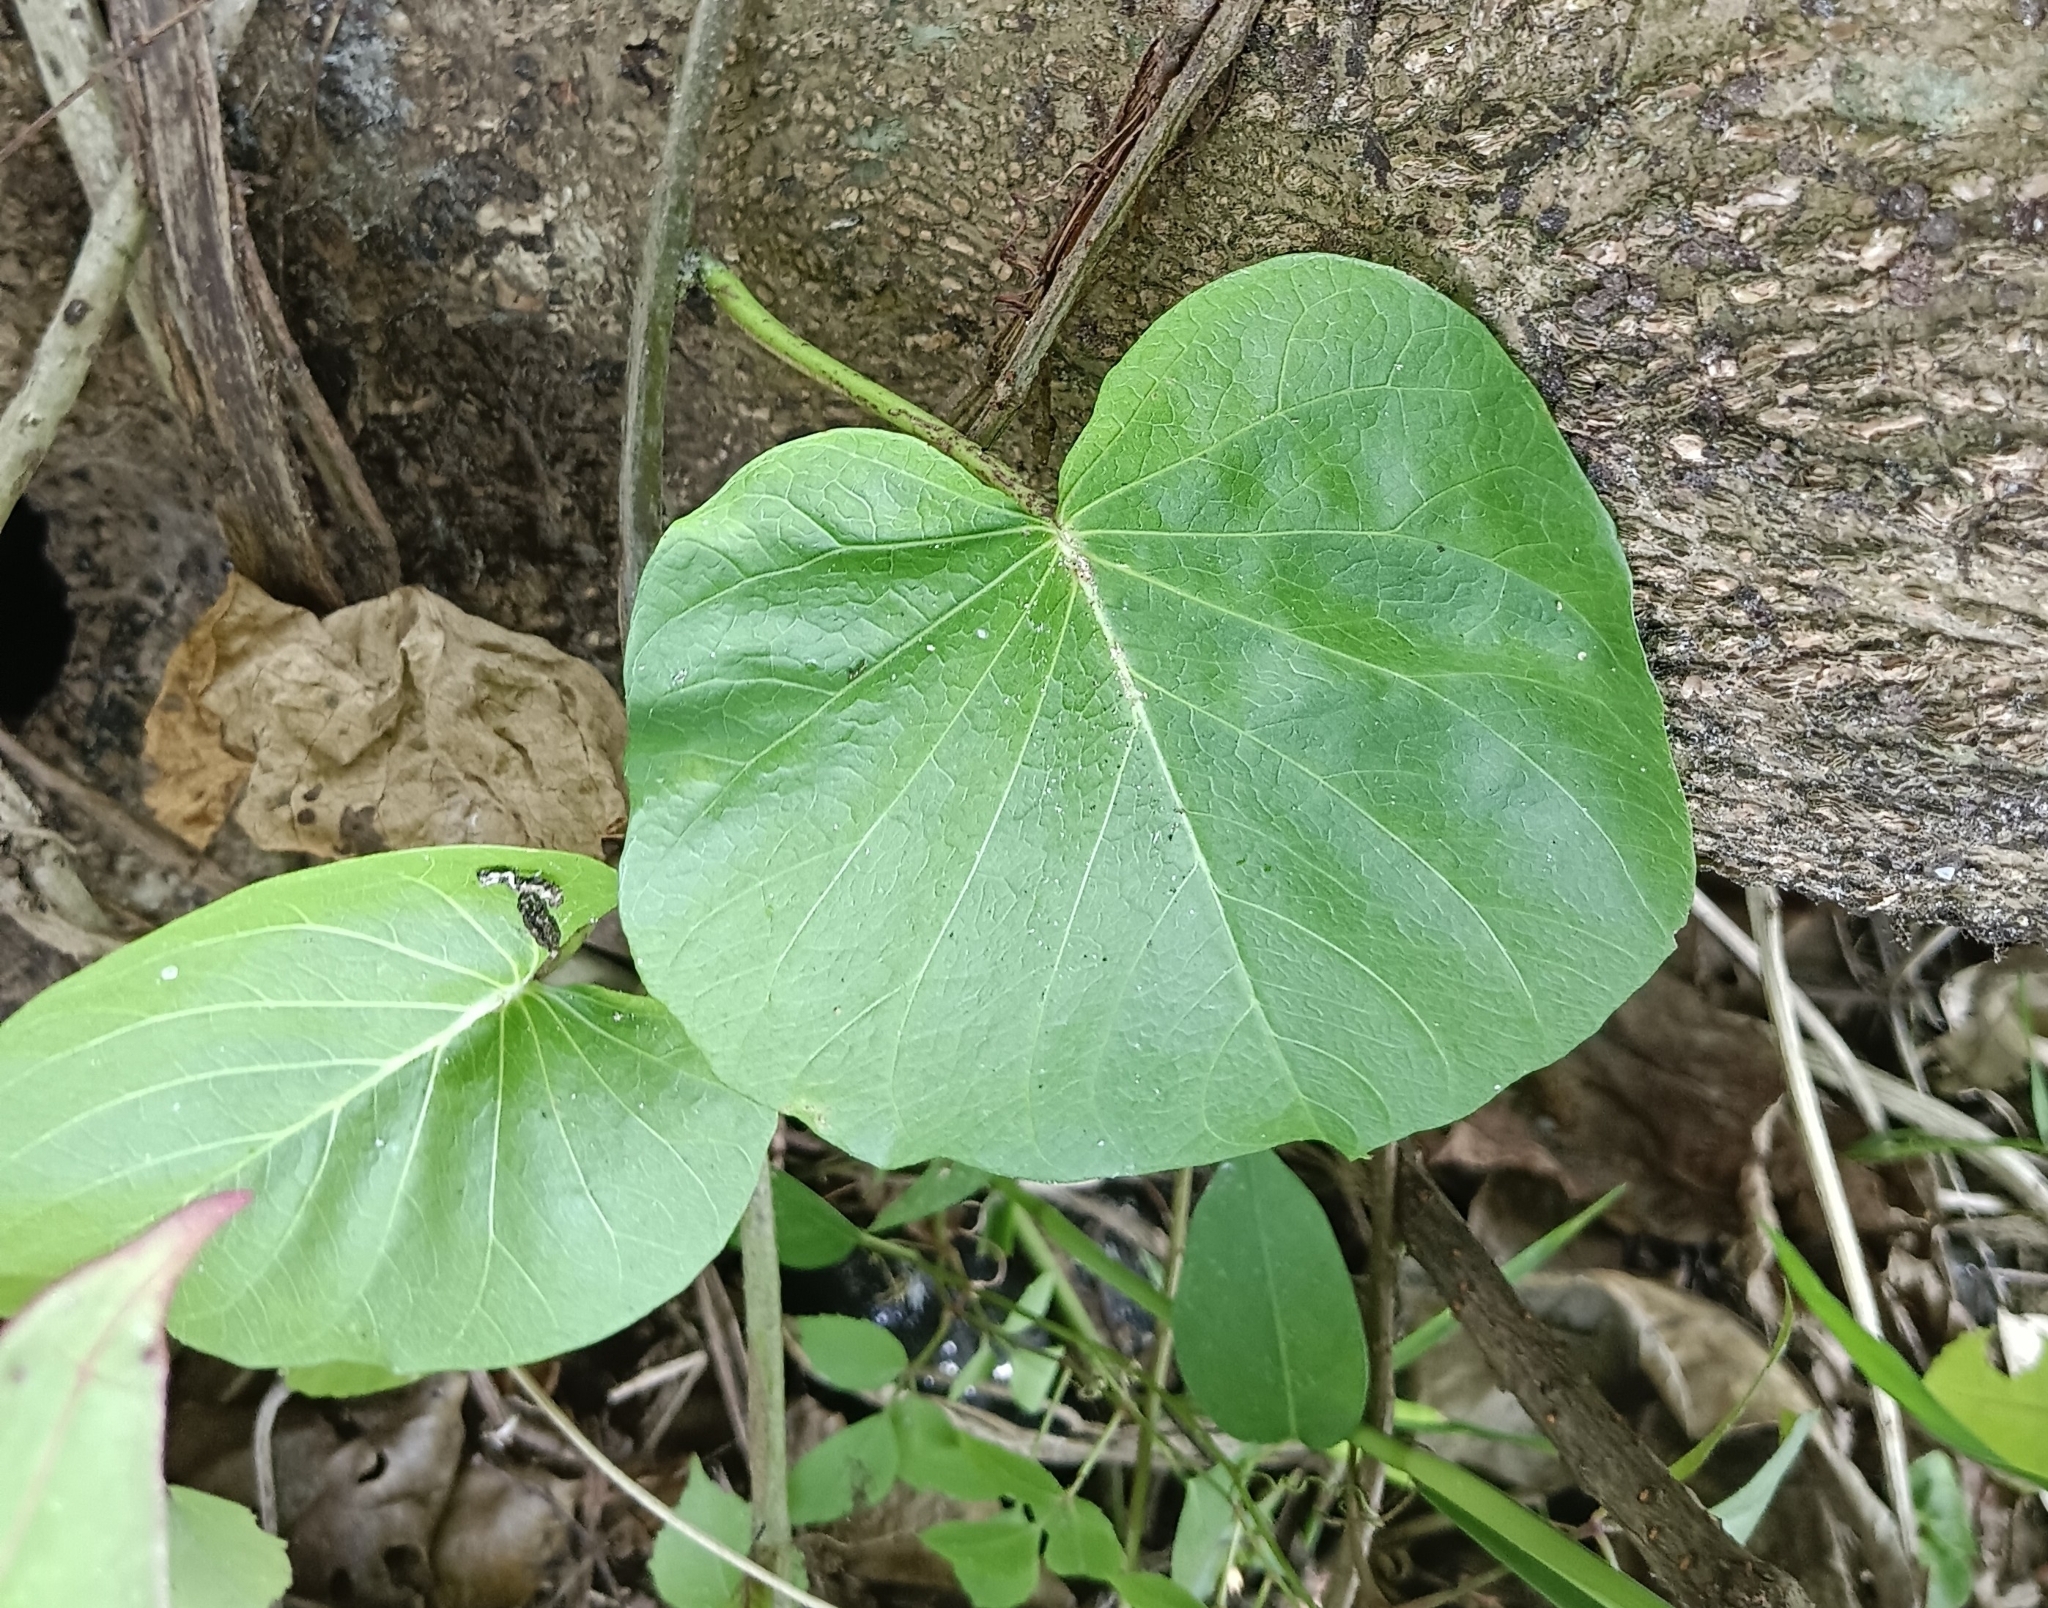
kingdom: Plantae
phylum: Tracheophyta
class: Magnoliopsida
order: Solanales
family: Convolvulaceae
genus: Ipomoea
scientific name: Ipomoea violacea
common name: Beach moonflower
